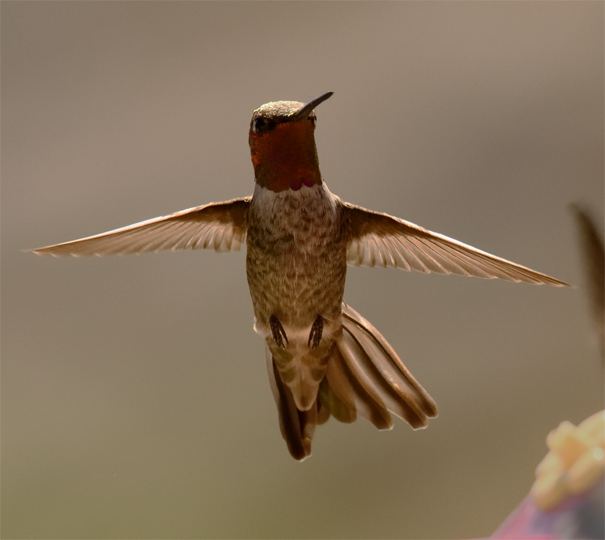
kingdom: Animalia
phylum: Chordata
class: Aves
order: Apodiformes
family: Trochilidae
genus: Calypte
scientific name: Calypte anna
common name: Anna's hummingbird
